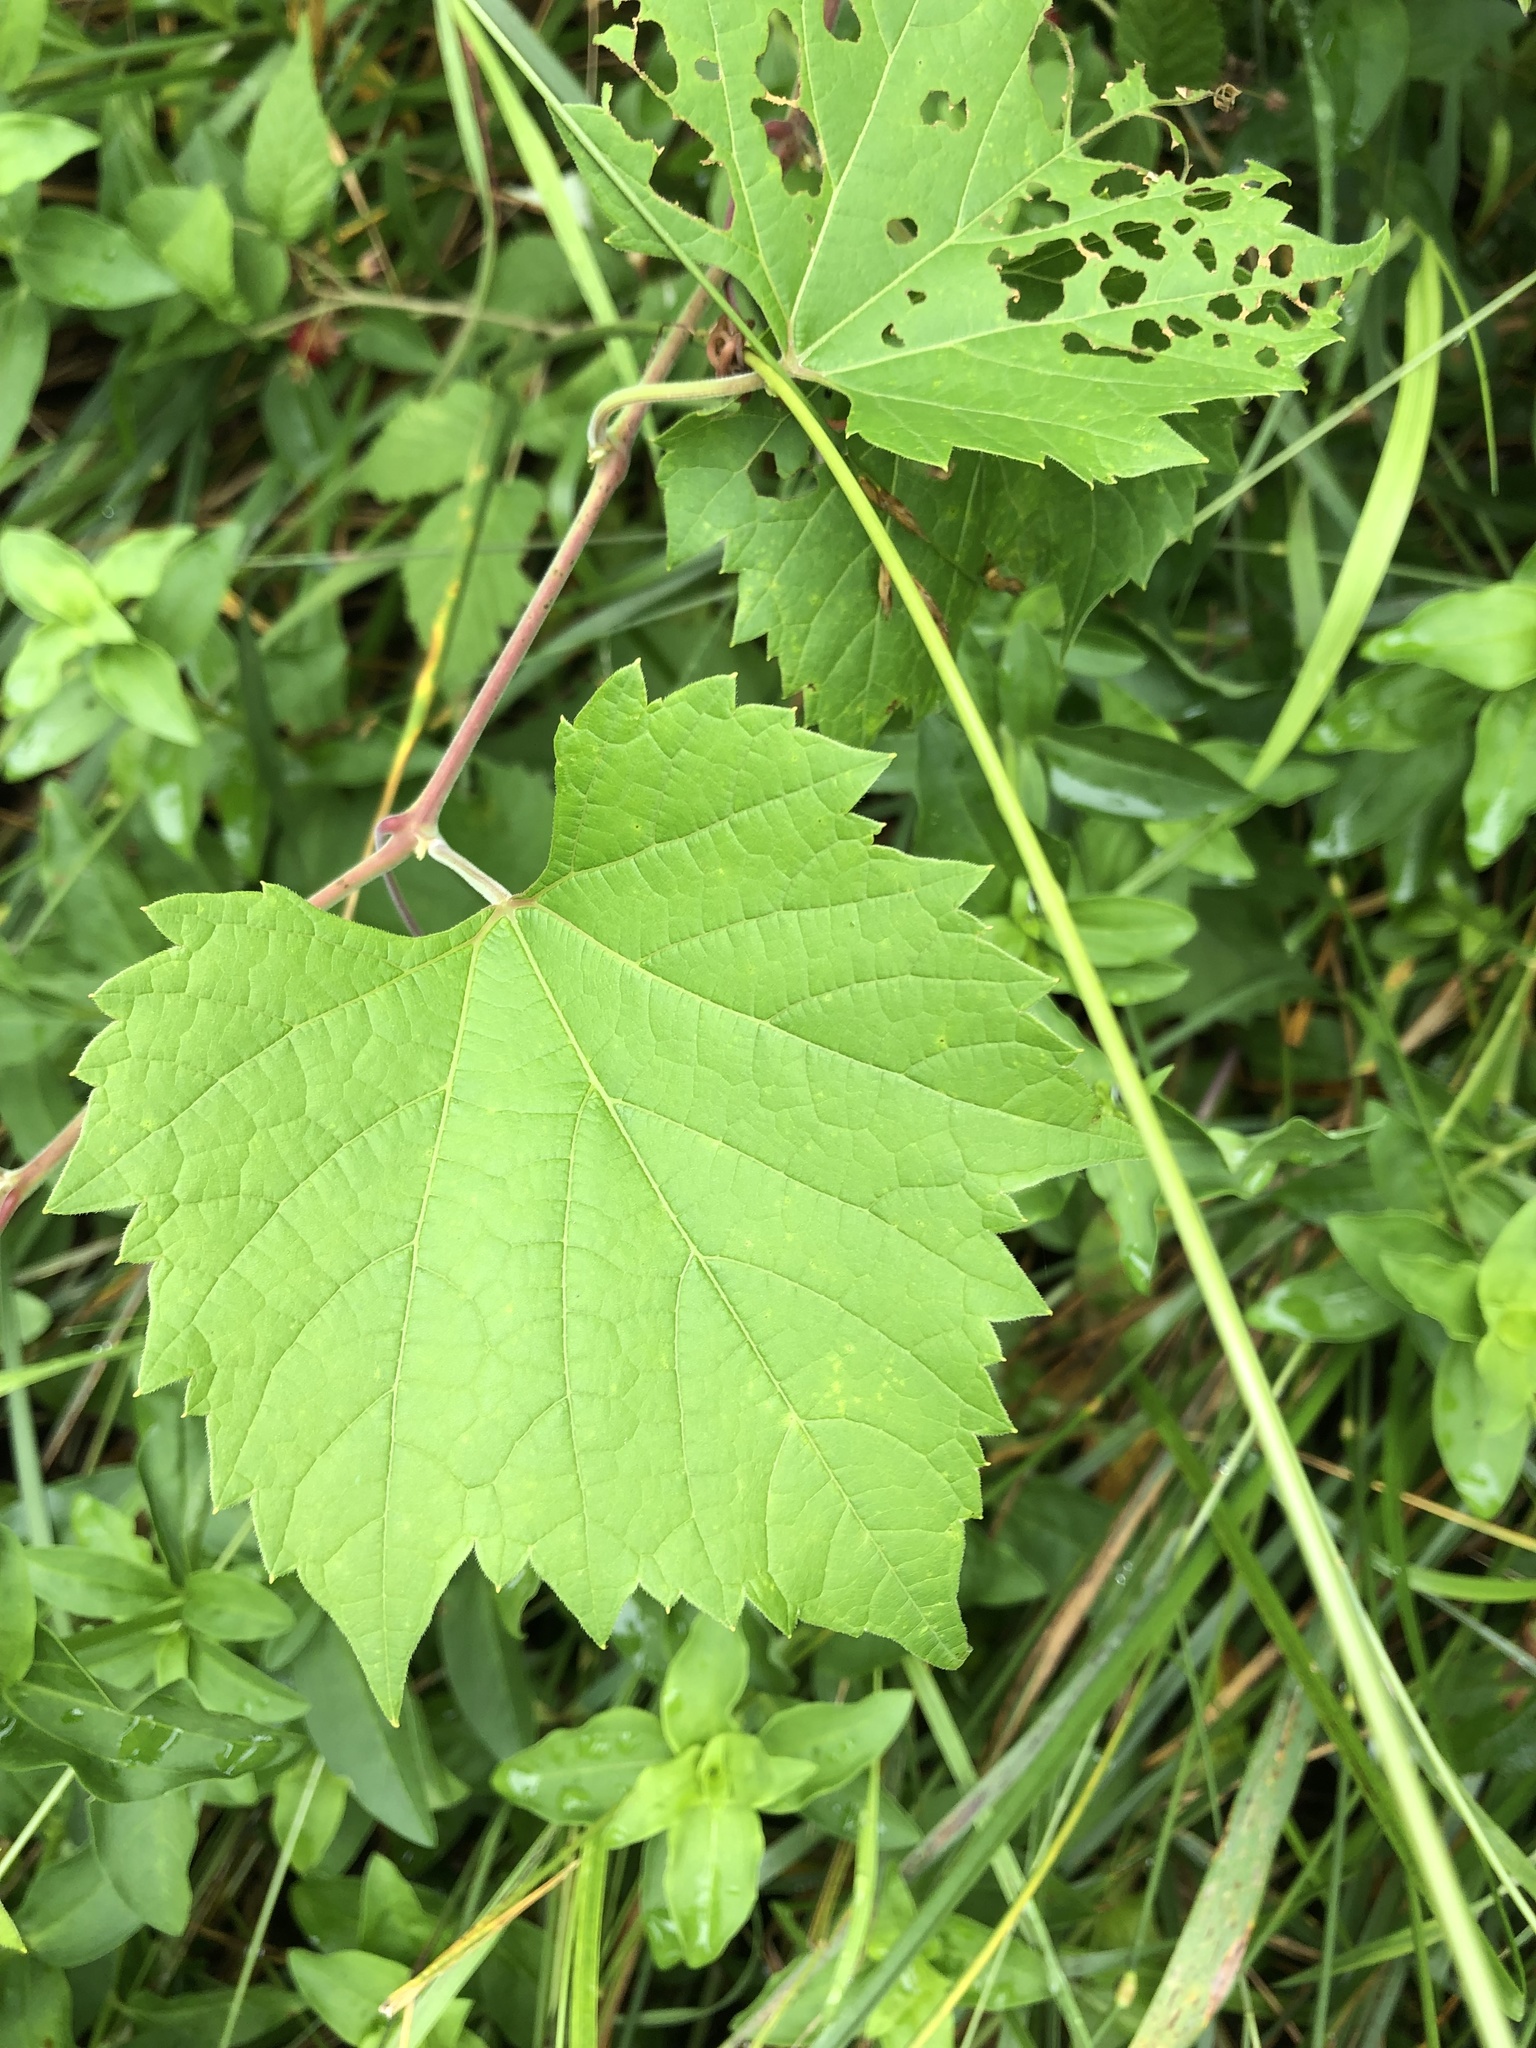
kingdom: Plantae
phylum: Tracheophyta
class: Magnoliopsida
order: Vitales
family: Vitaceae
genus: Vitis
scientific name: Vitis riparia
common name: Frost grape
